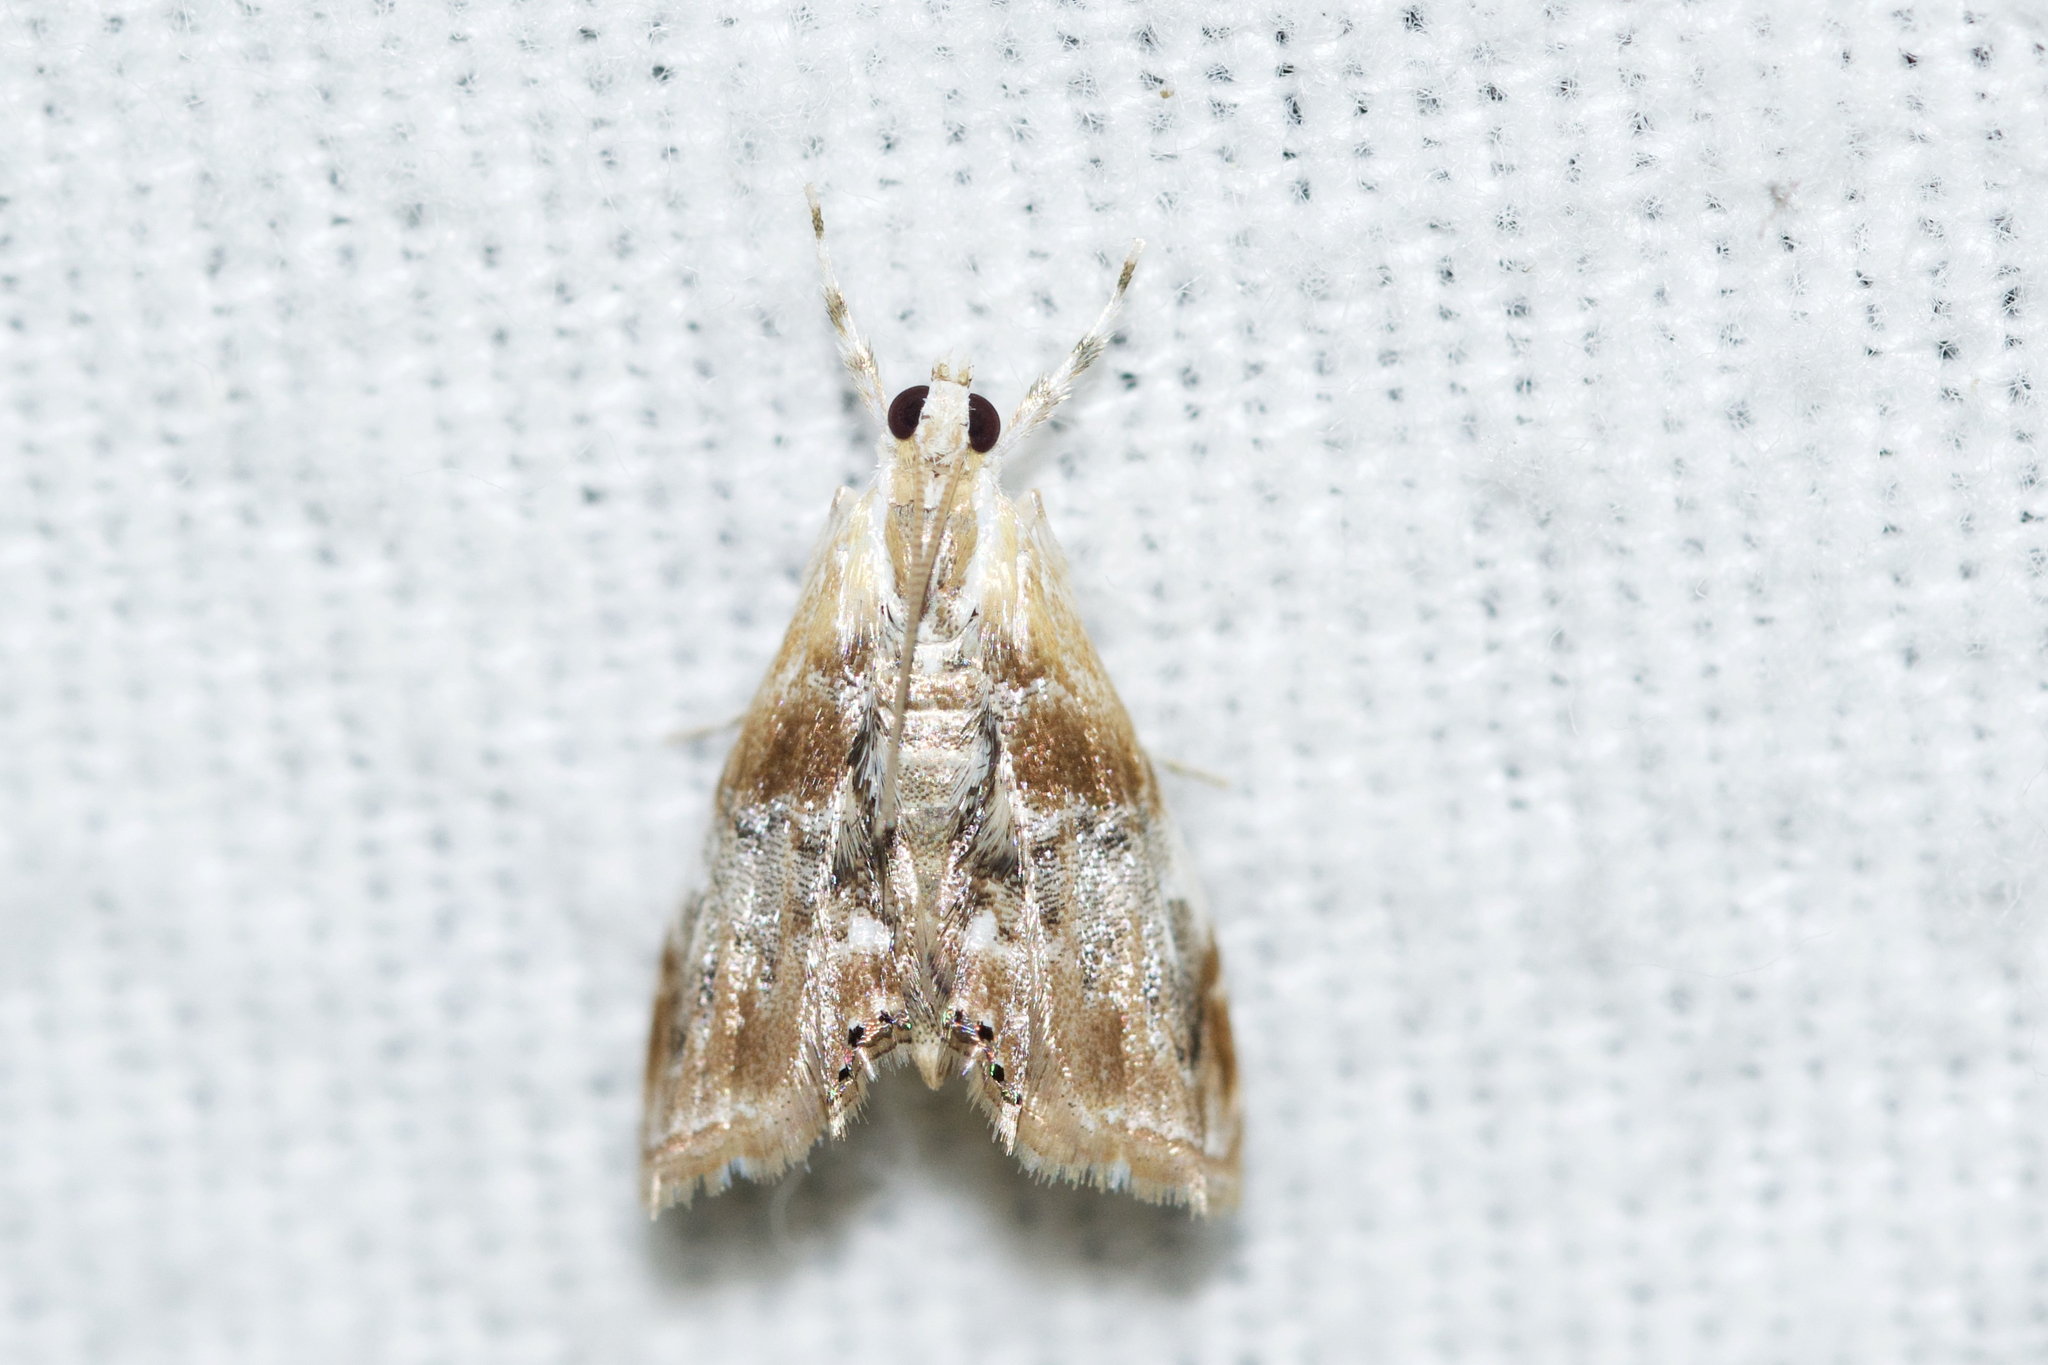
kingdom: Animalia
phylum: Arthropoda
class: Insecta
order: Lepidoptera
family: Crambidae
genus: Dicymolomia
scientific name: Dicymolomia julianalis
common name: Julia's dicymolomia moth
